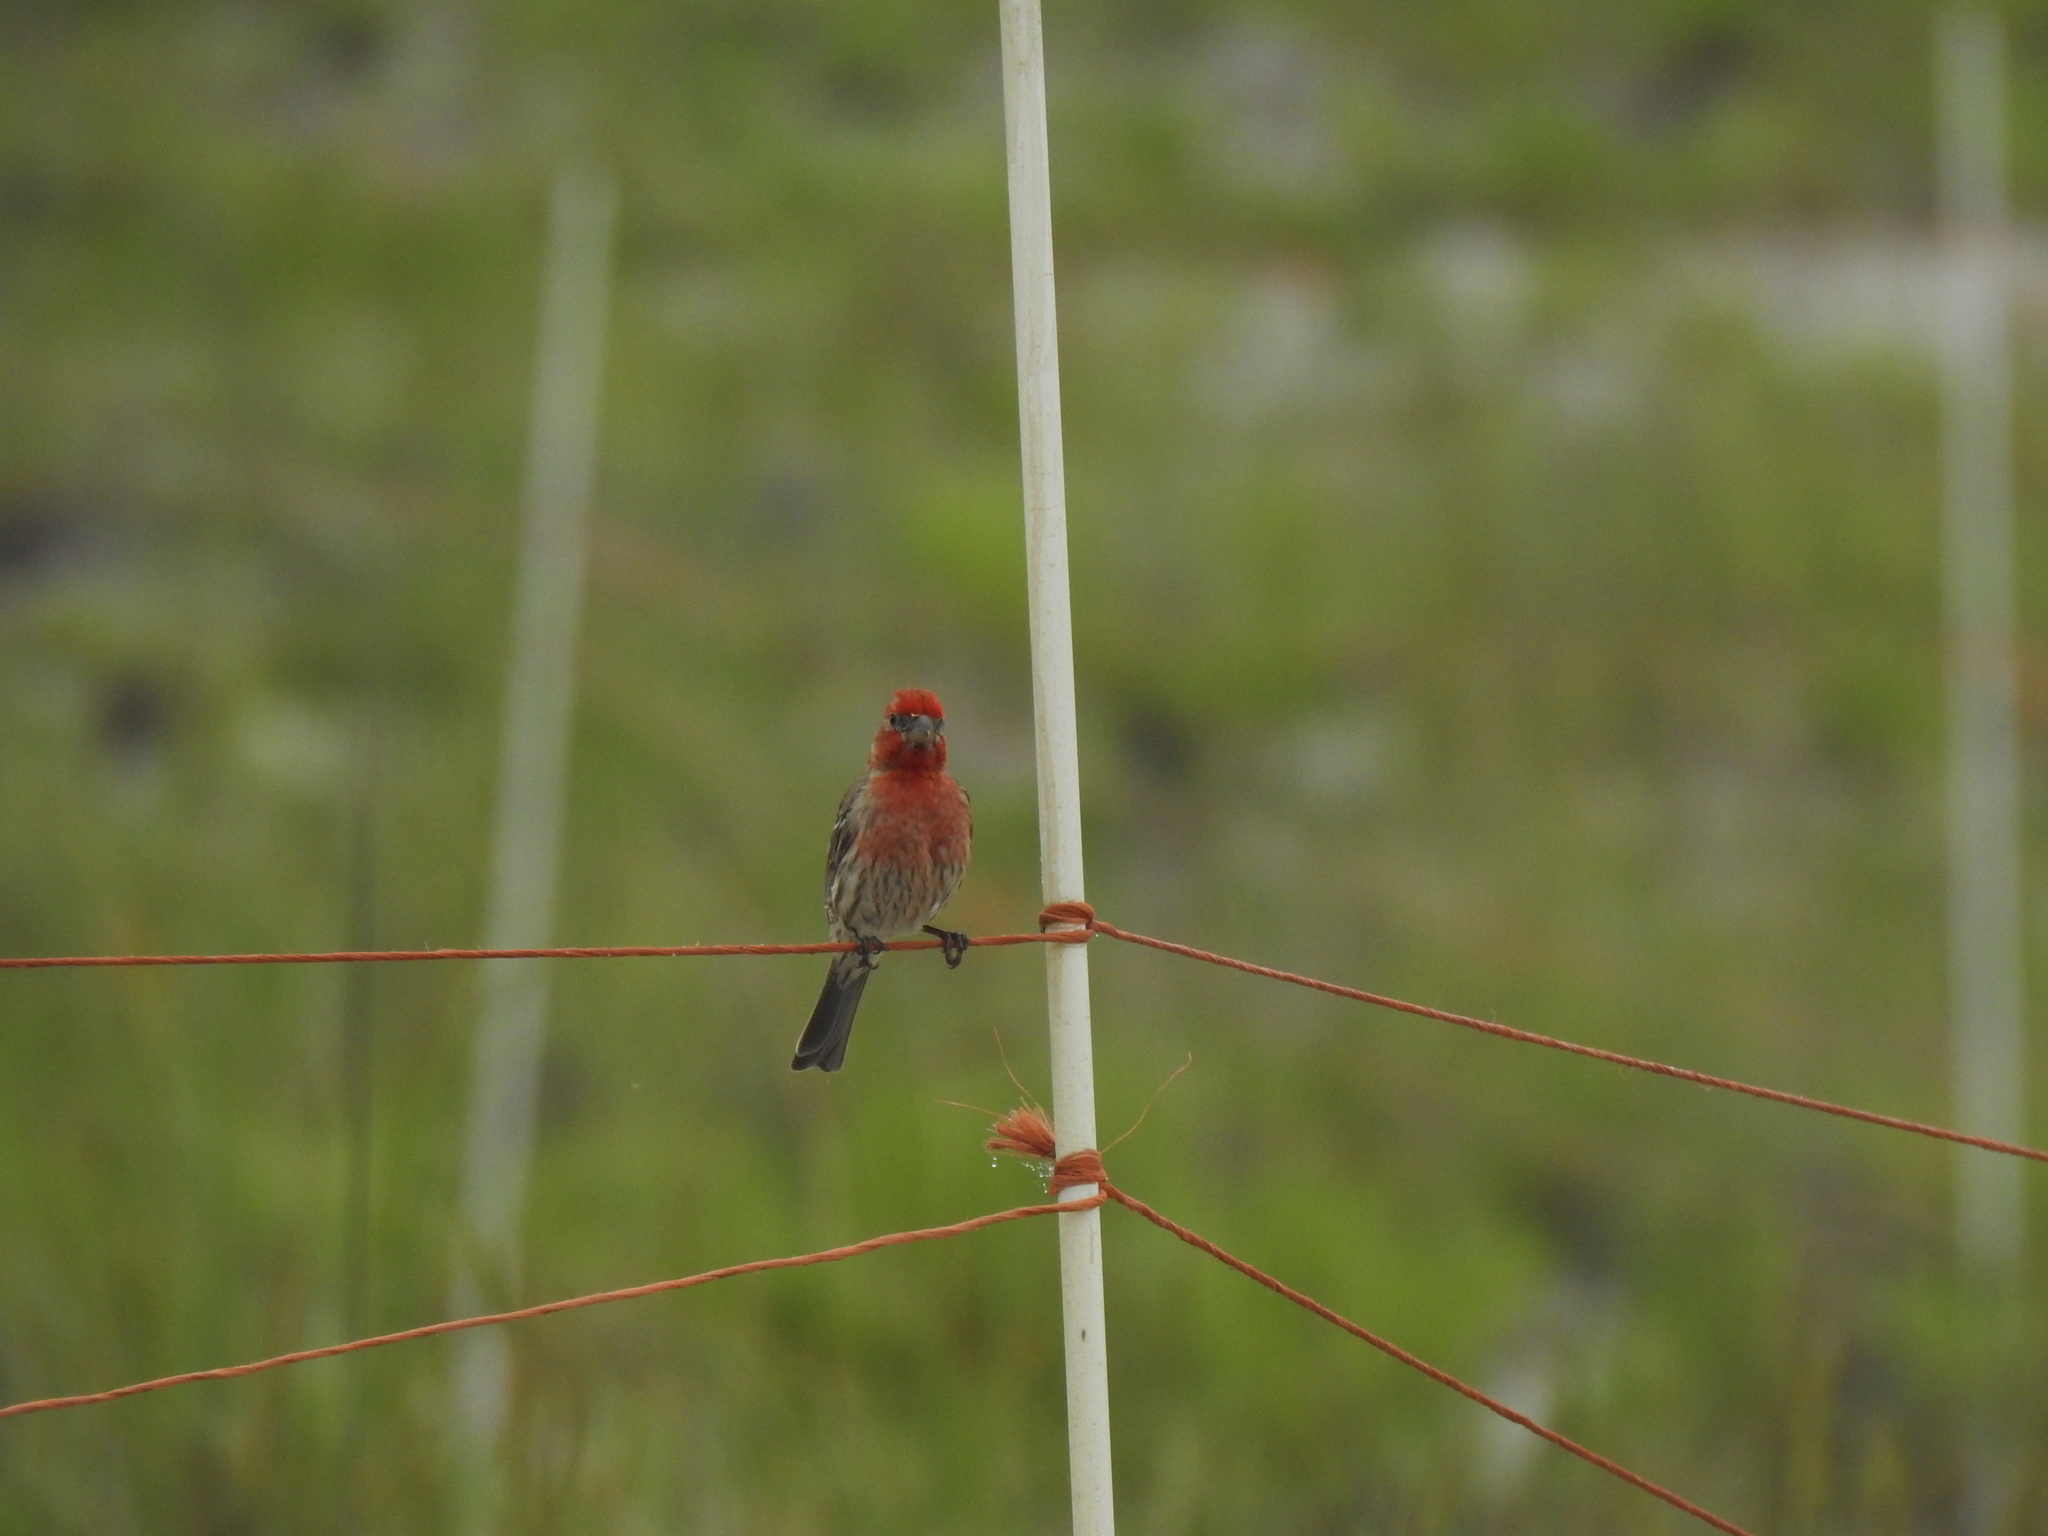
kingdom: Animalia
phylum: Chordata
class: Aves
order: Passeriformes
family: Fringillidae
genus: Haemorhous
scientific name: Haemorhous mexicanus
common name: House finch
